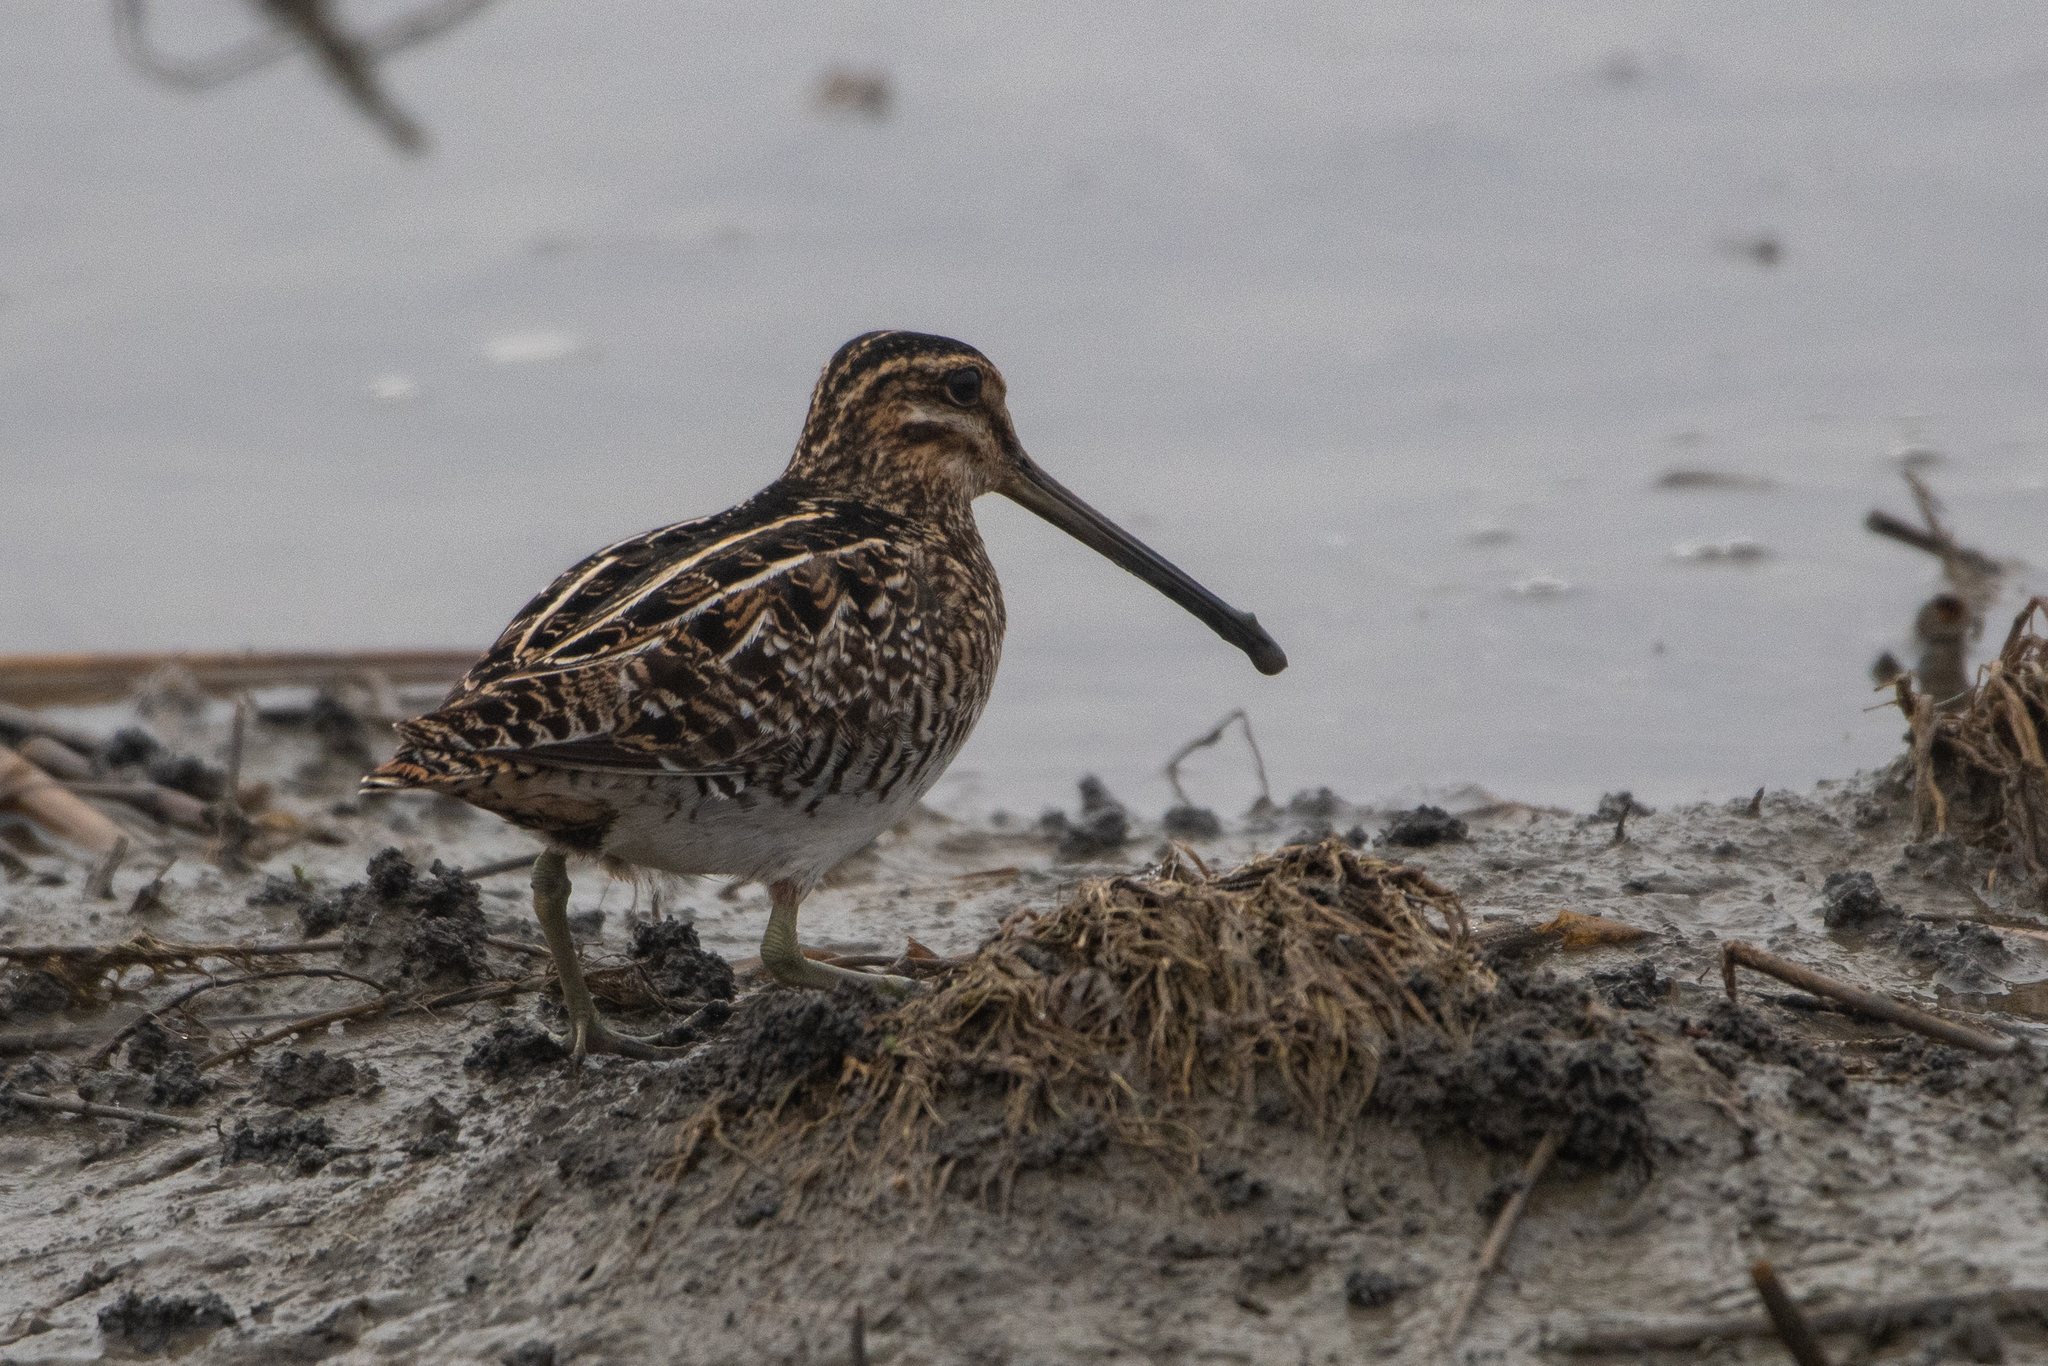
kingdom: Animalia
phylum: Chordata
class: Aves
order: Charadriiformes
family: Scolopacidae
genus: Gallinago
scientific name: Gallinago delicata
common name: Wilson's snipe
